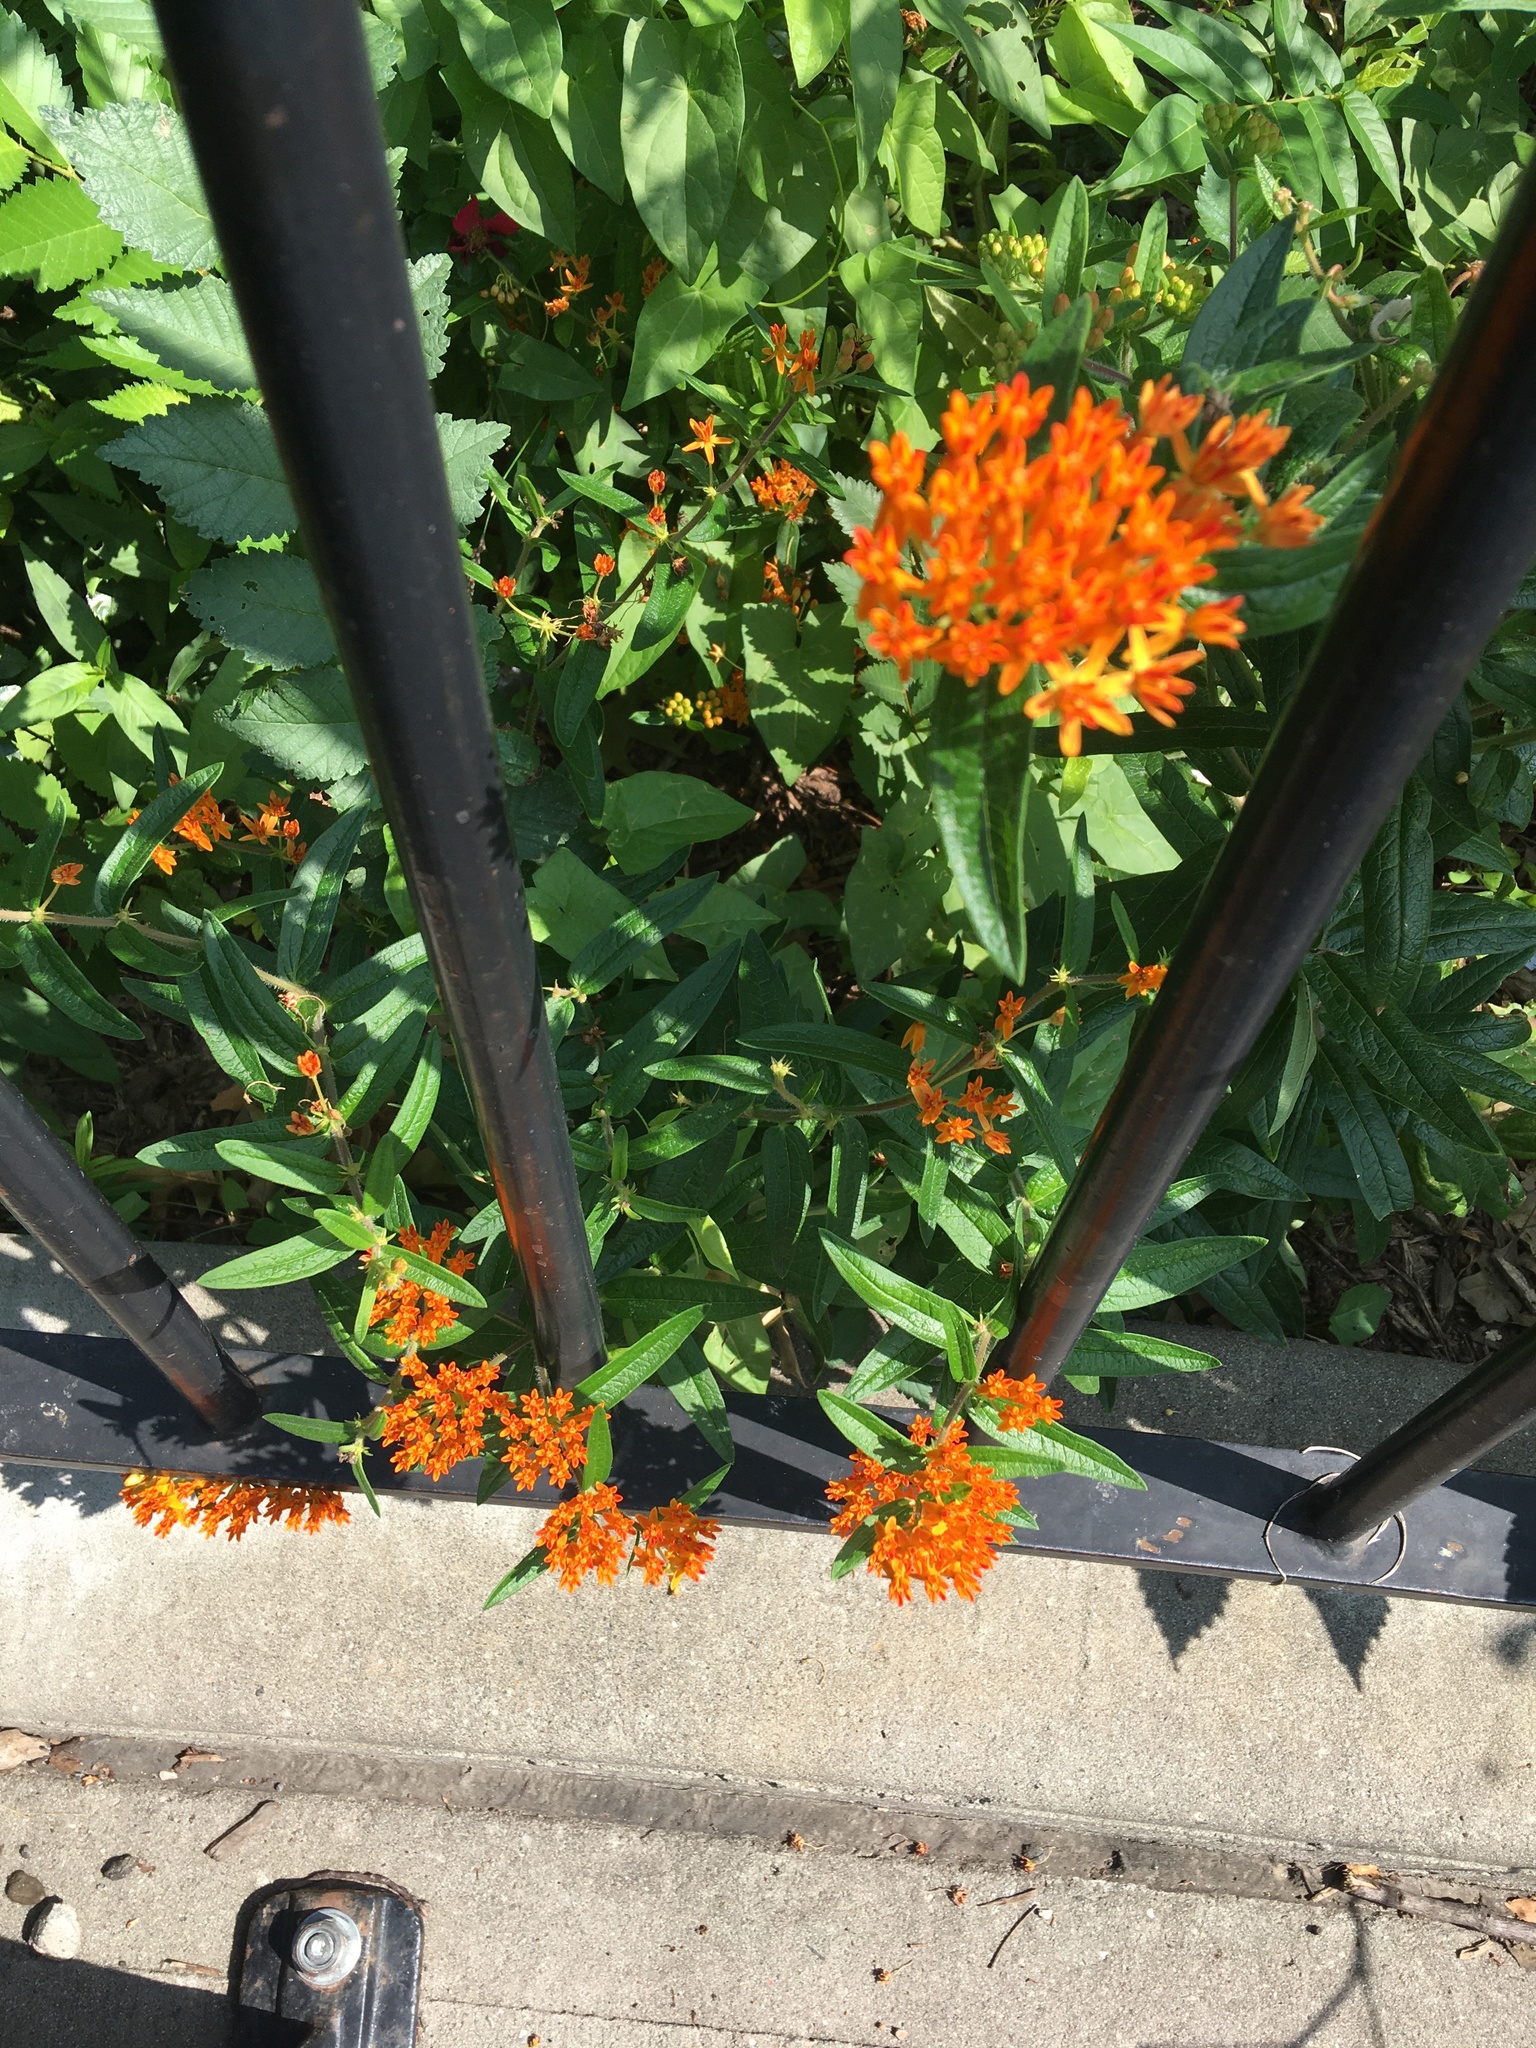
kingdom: Plantae
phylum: Tracheophyta
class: Magnoliopsida
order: Gentianales
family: Apocynaceae
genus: Asclepias
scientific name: Asclepias tuberosa
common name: Butterfly milkweed
